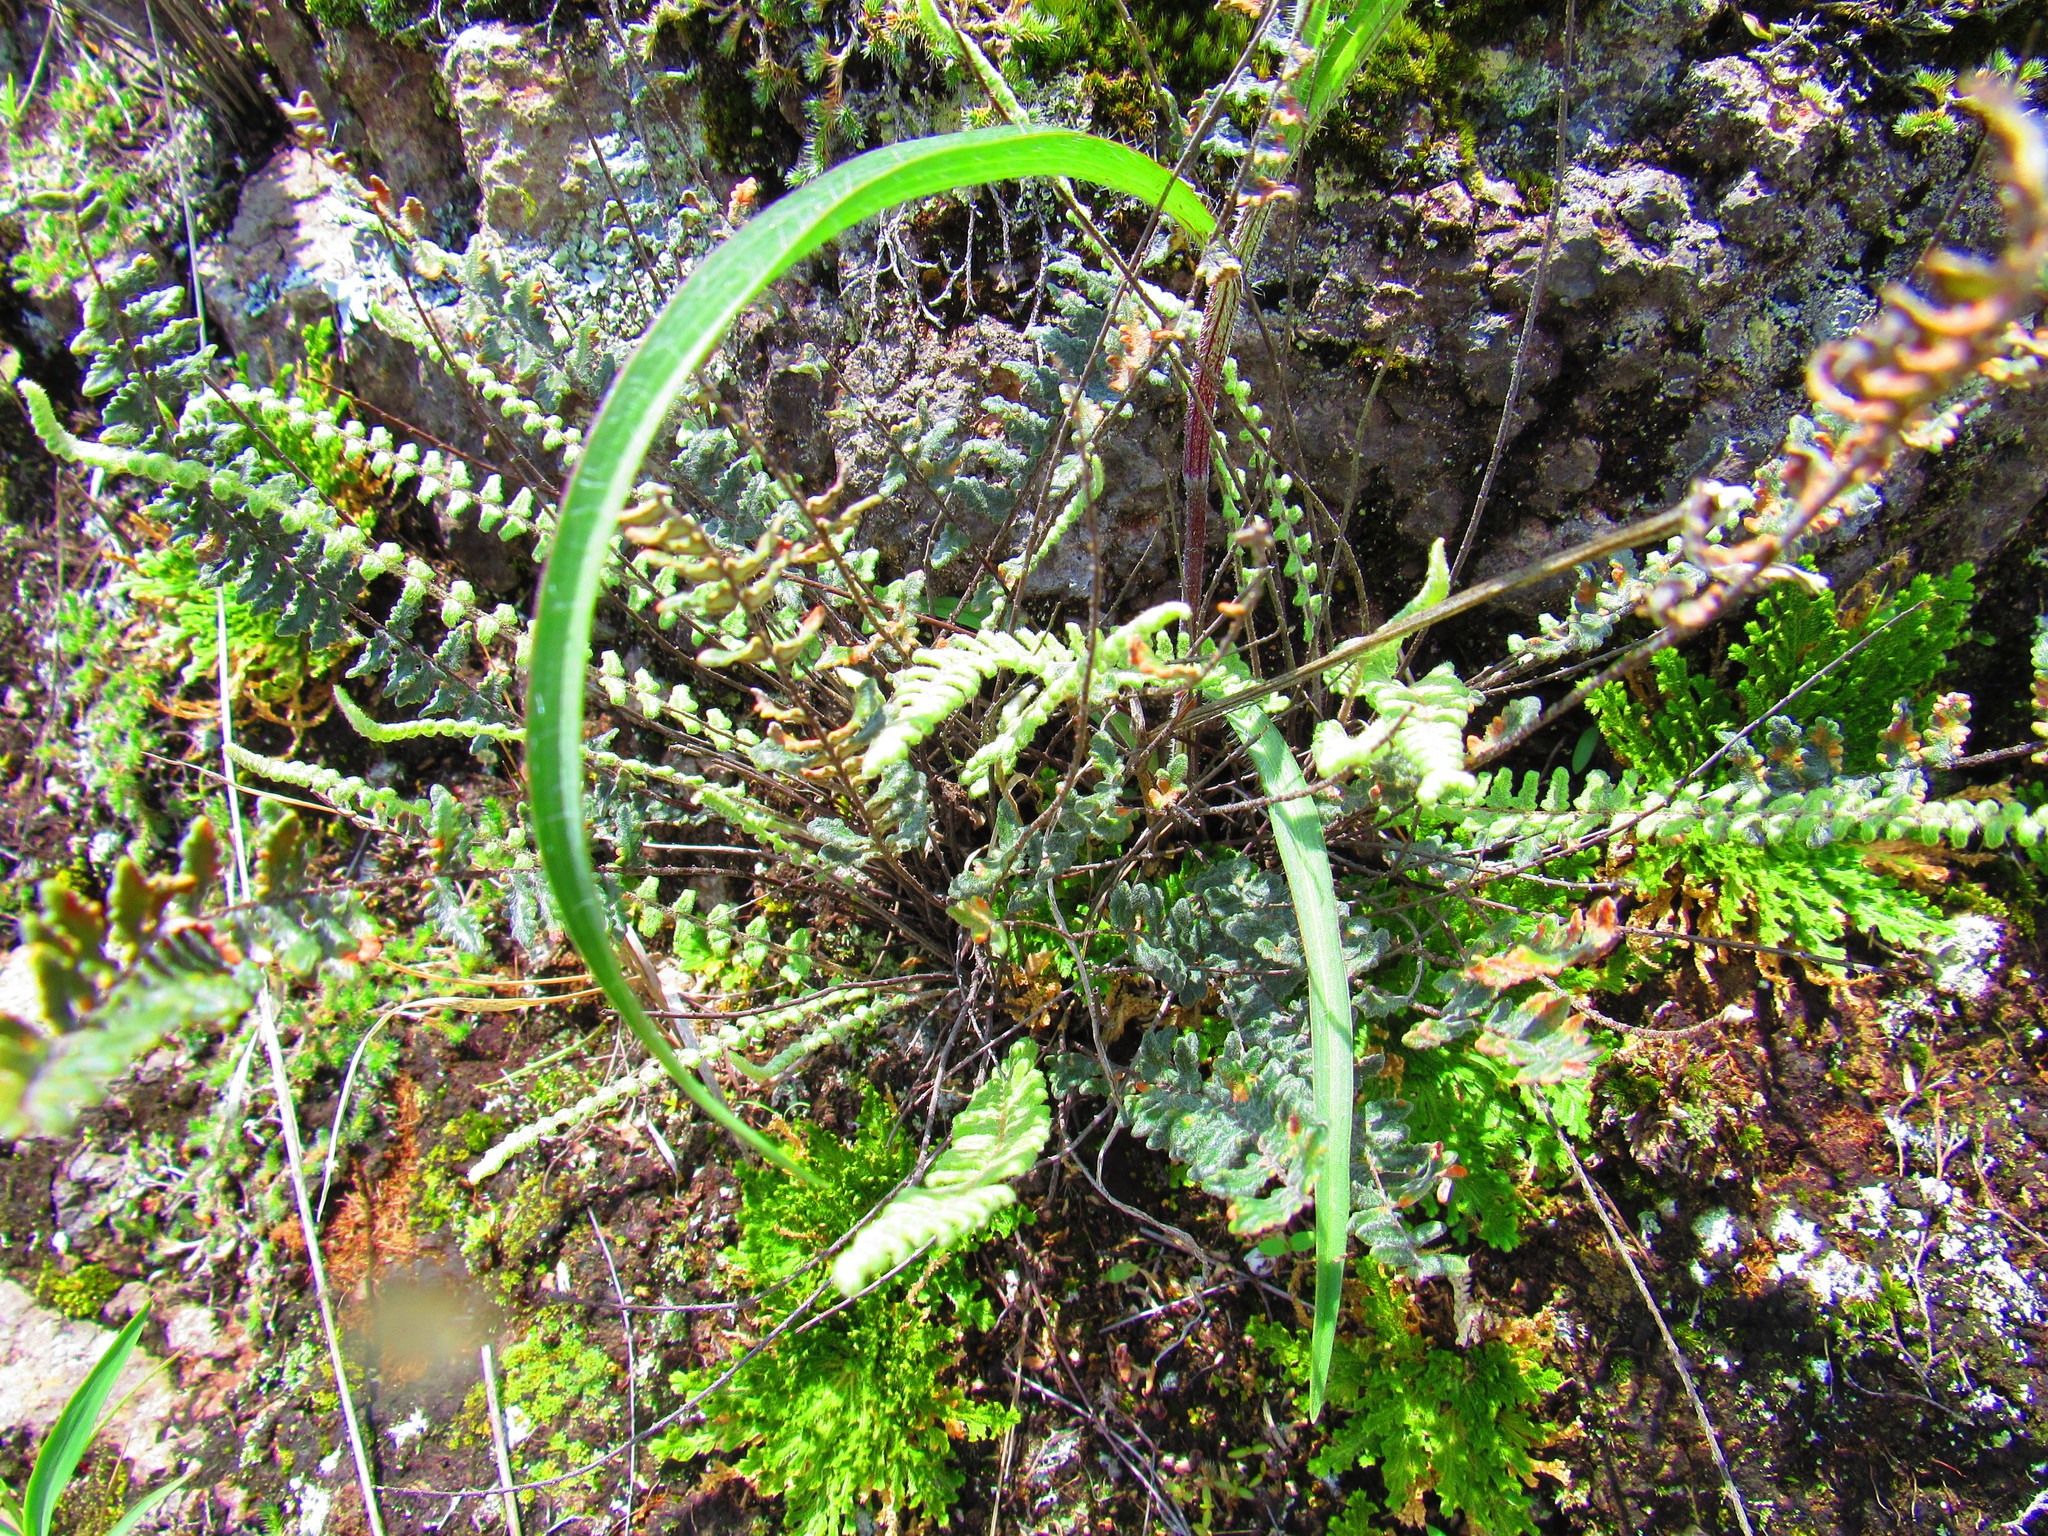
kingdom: Plantae
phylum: Tracheophyta
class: Polypodiopsida
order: Polypodiales
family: Pteridaceae
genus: Myriopteris
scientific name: Myriopteris aurea
